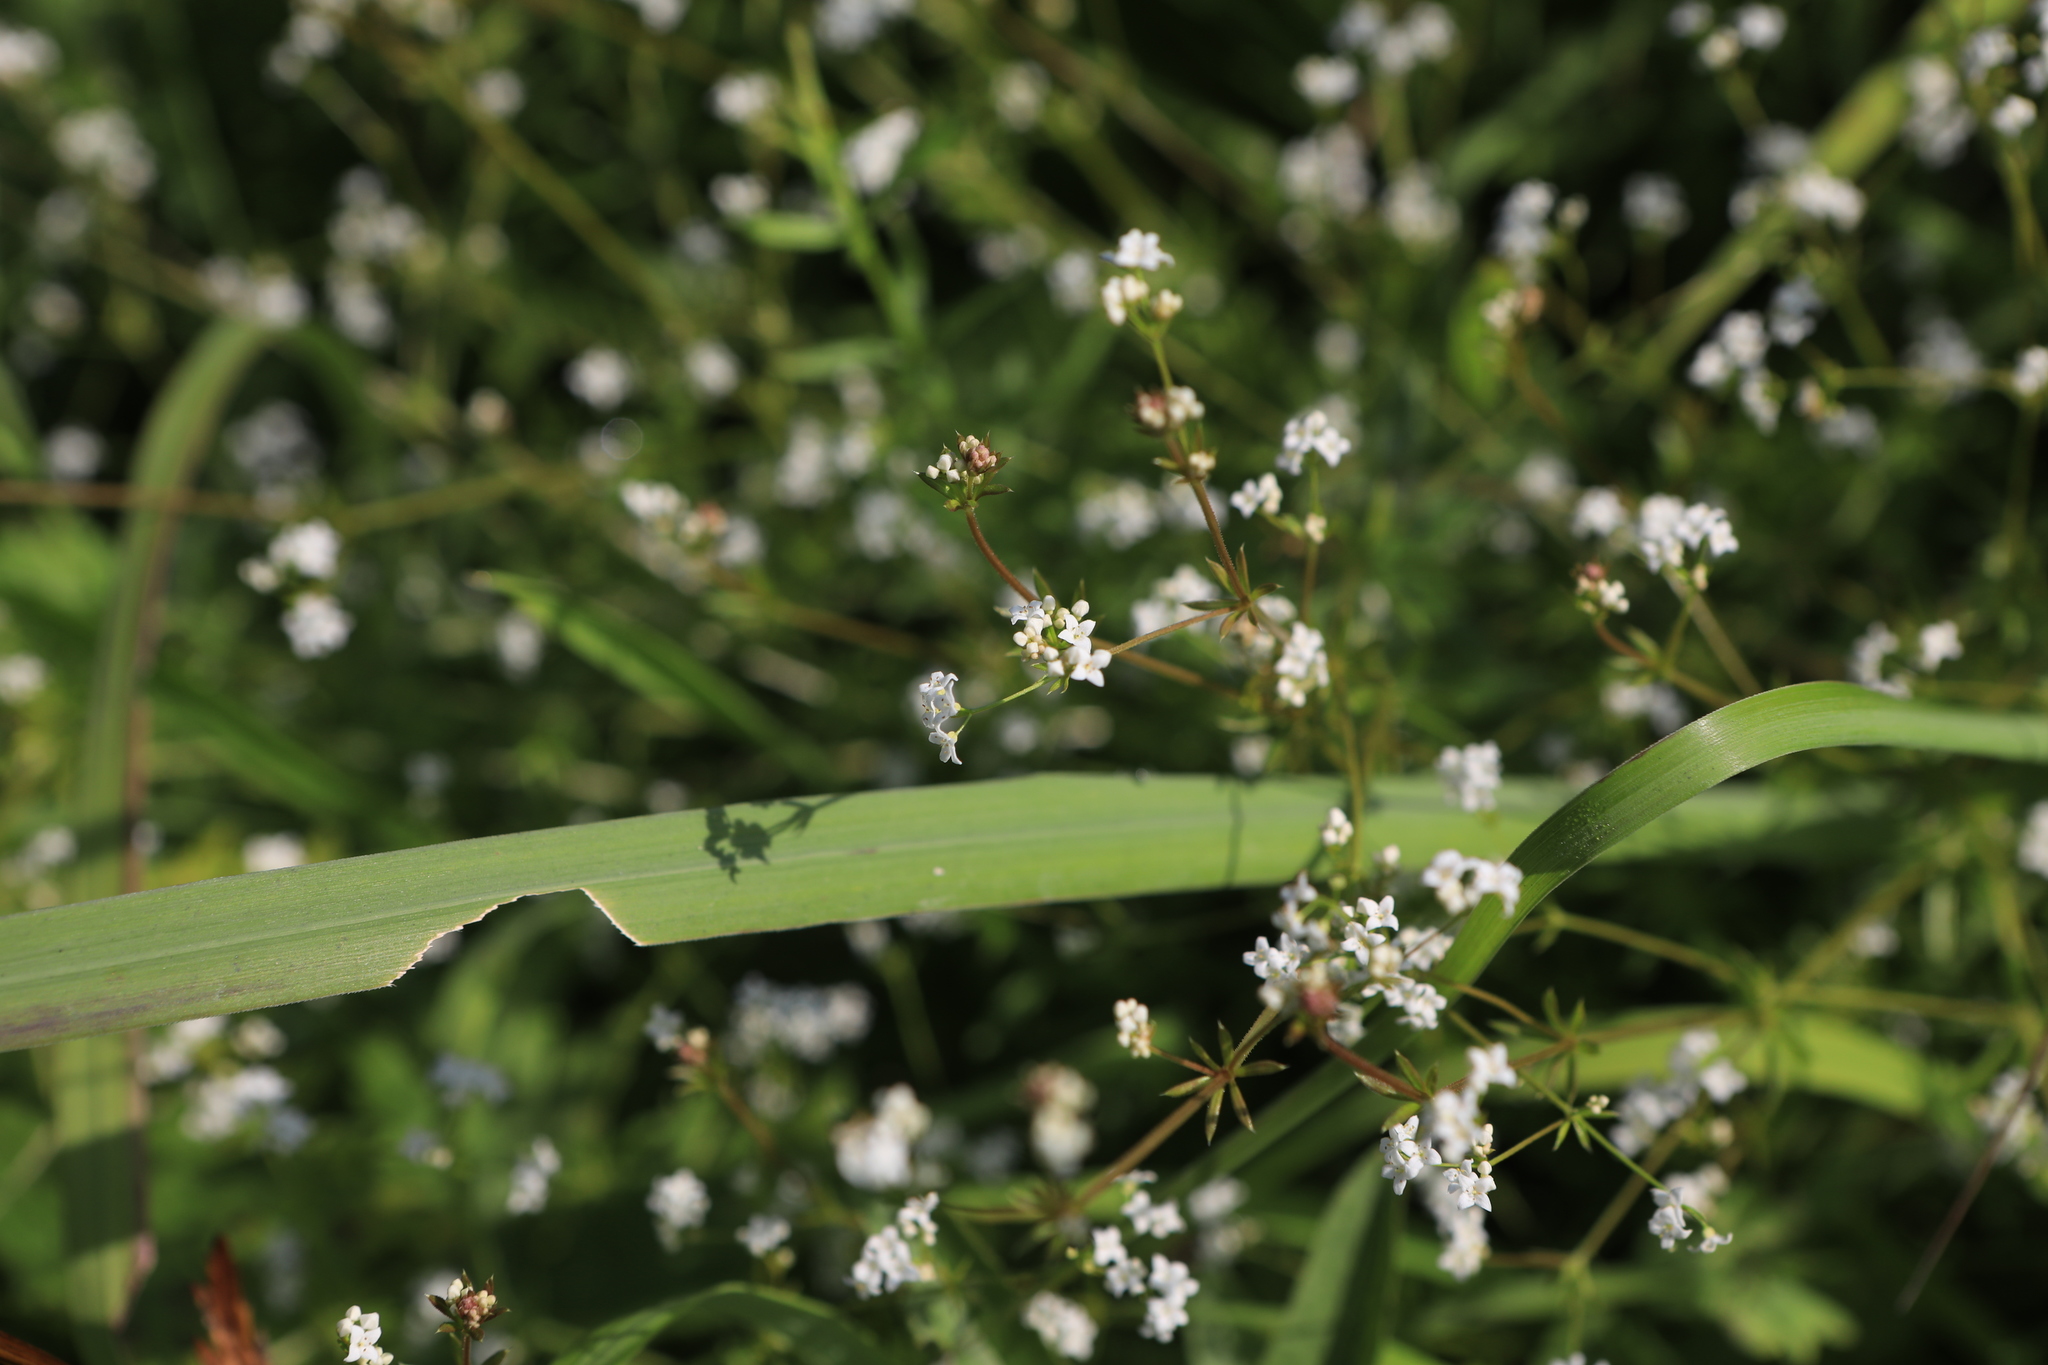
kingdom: Plantae
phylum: Tracheophyta
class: Magnoliopsida
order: Gentianales
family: Rubiaceae
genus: Galium
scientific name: Galium uliginosum
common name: Fen bedstraw
